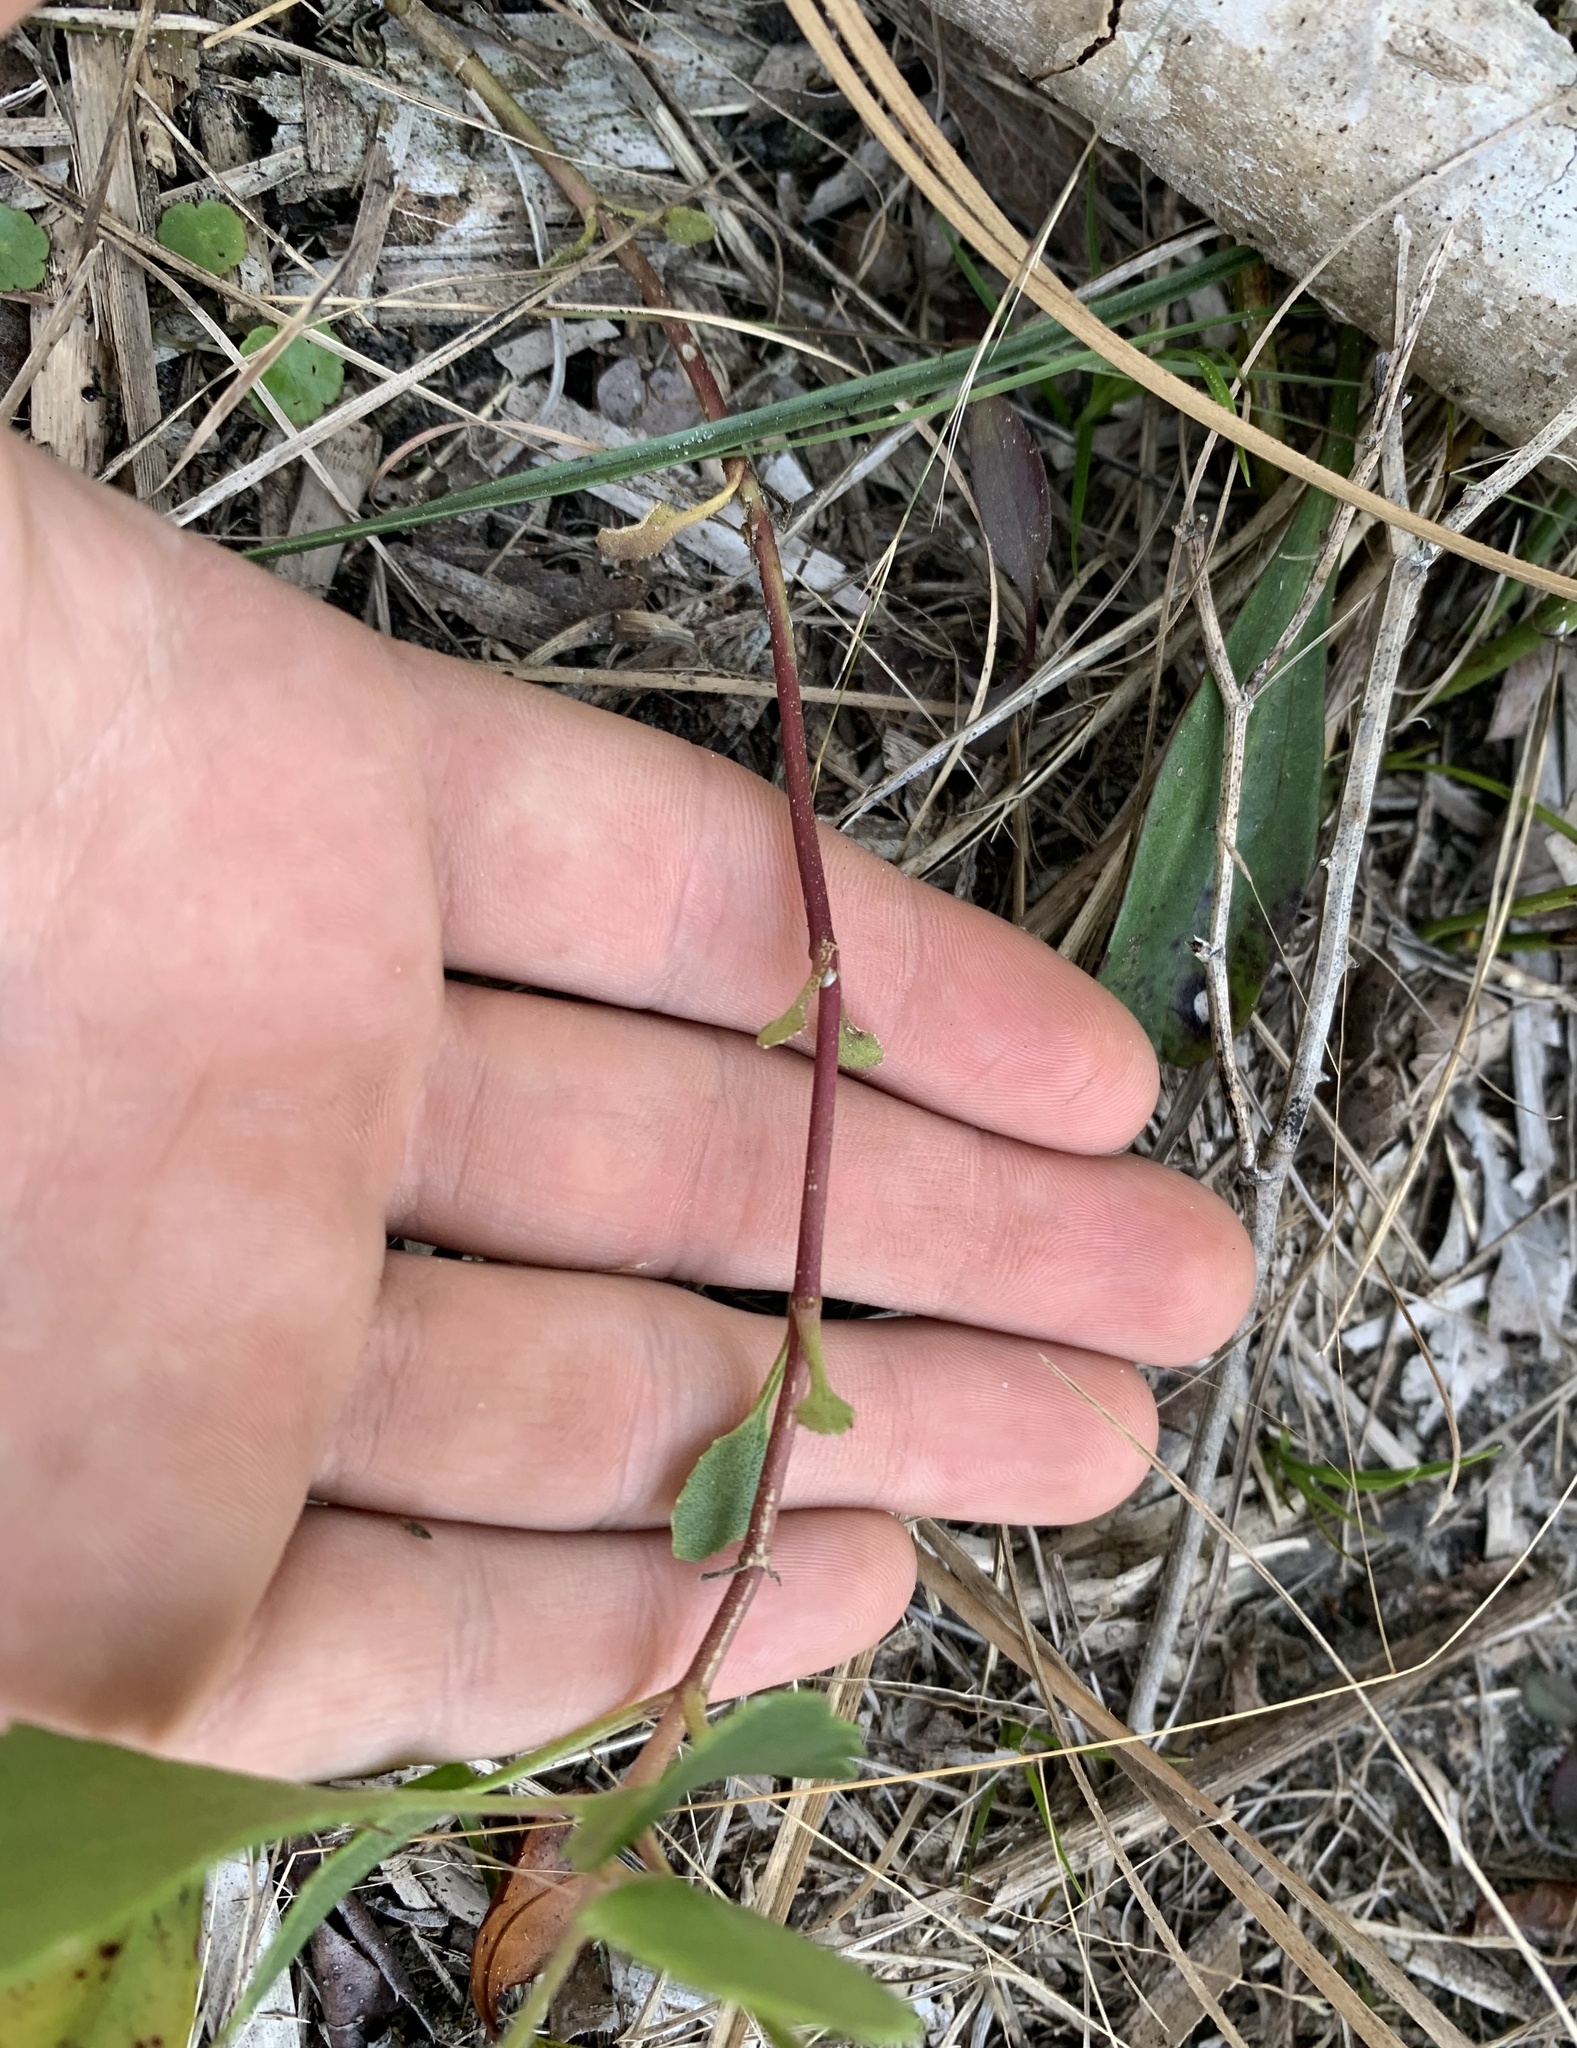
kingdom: Plantae
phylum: Tracheophyta
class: Magnoliopsida
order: Asterales
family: Asteraceae
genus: Eupatorium
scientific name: Eupatorium mikanioides
